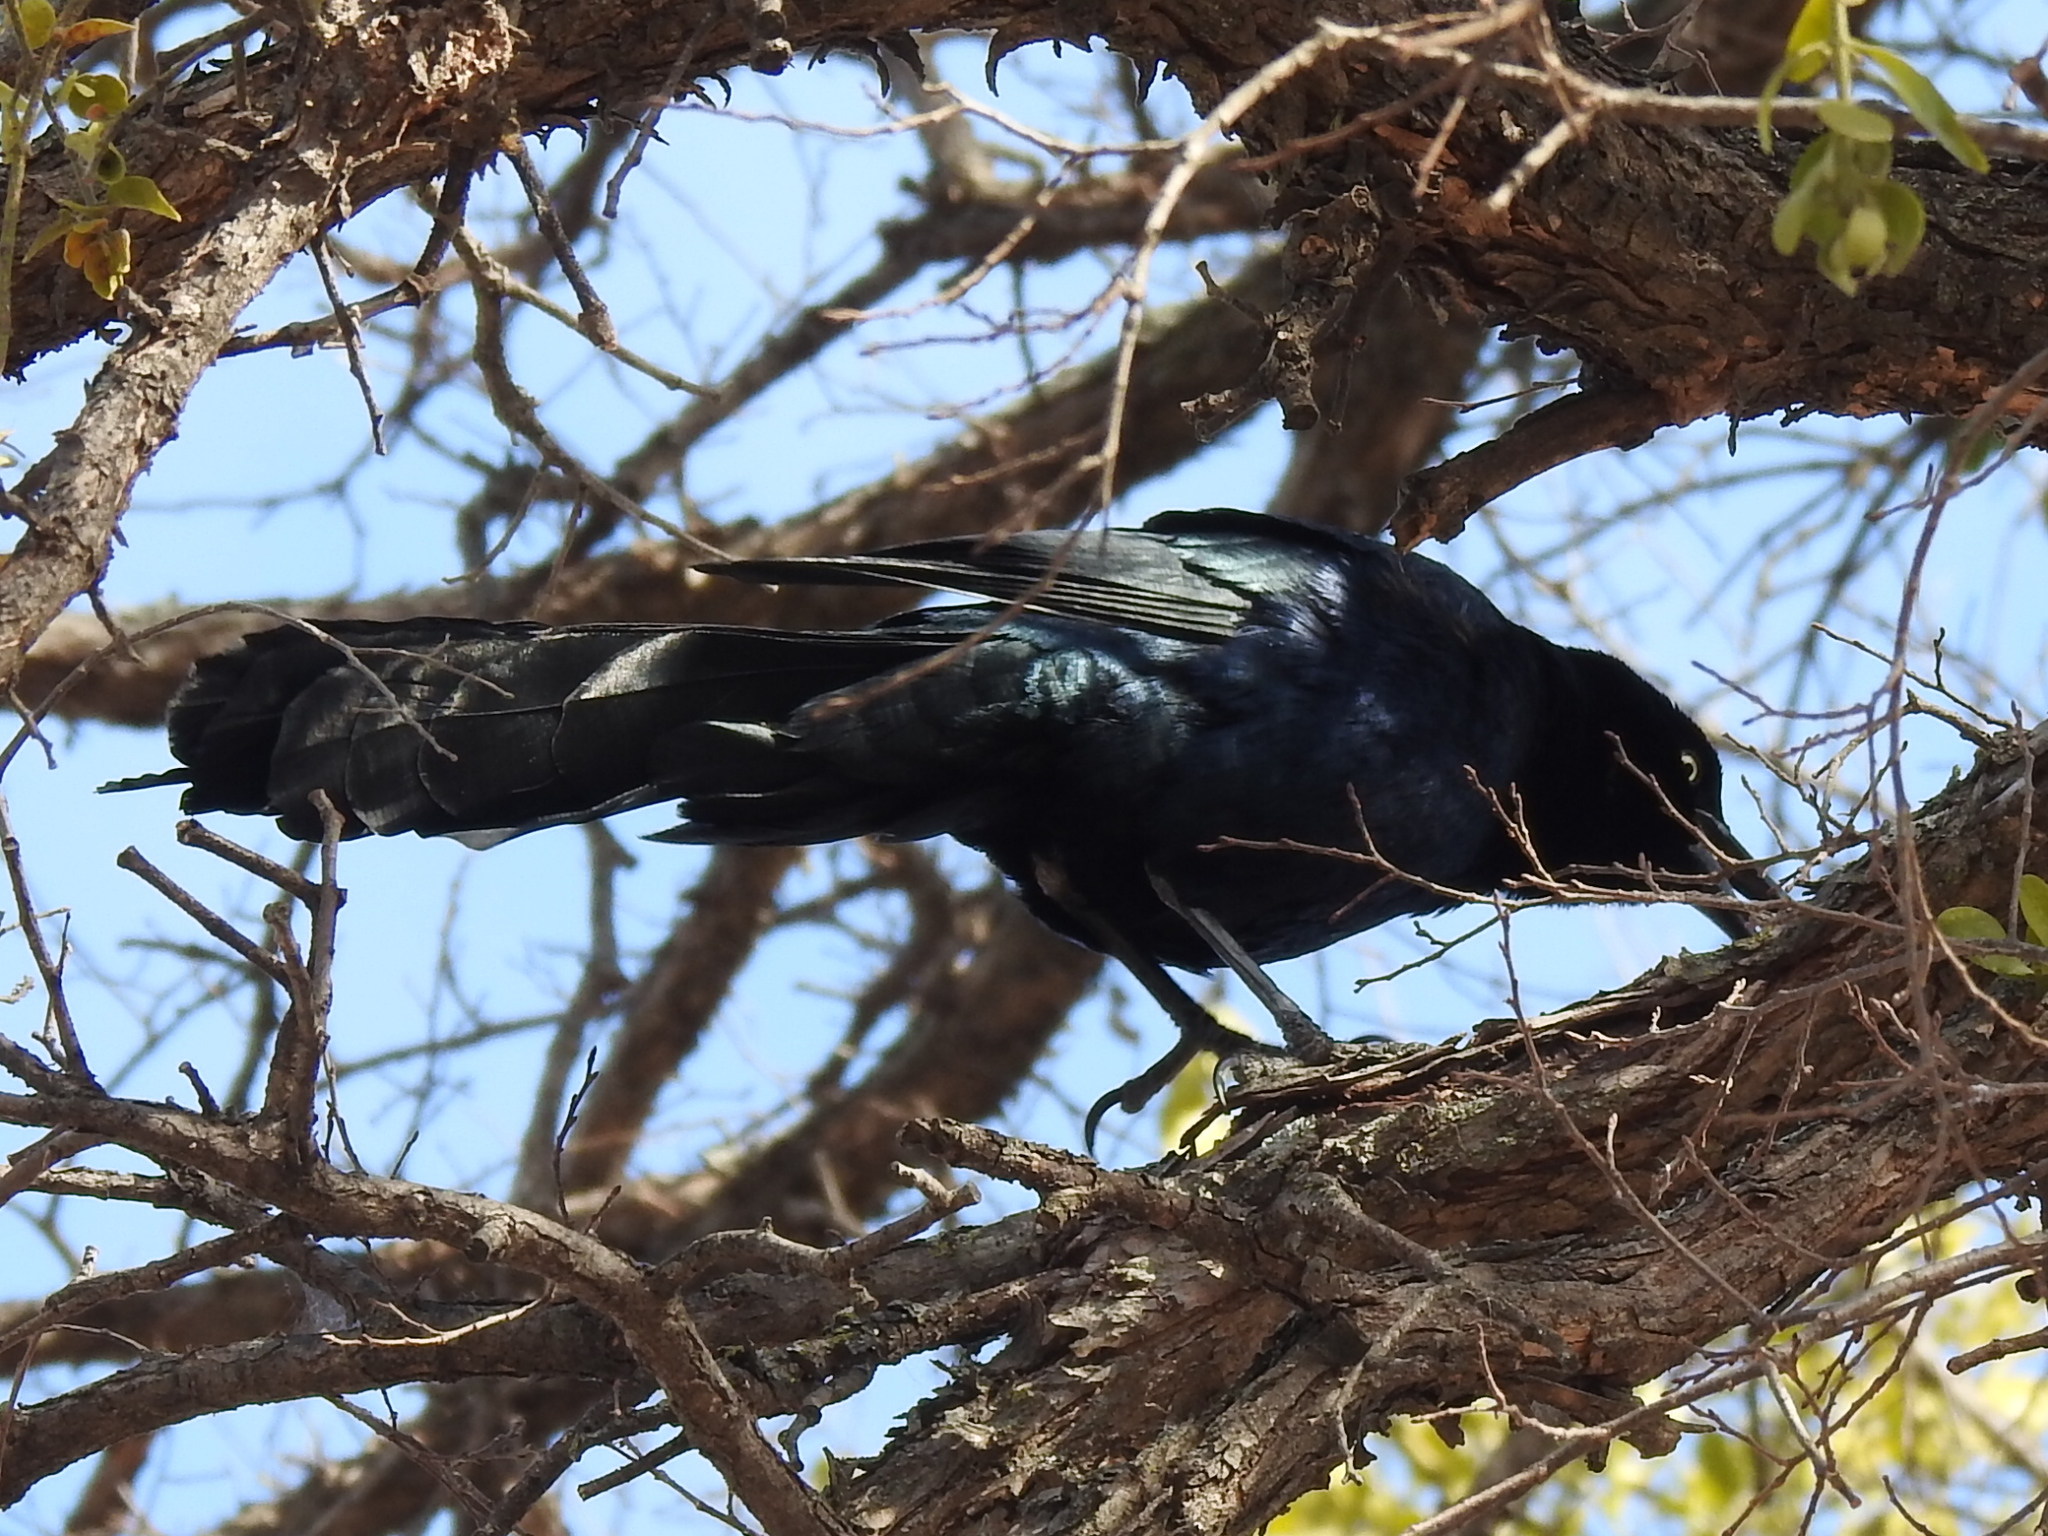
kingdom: Animalia
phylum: Chordata
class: Aves
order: Passeriformes
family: Icteridae
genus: Quiscalus
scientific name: Quiscalus mexicanus
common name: Great-tailed grackle
